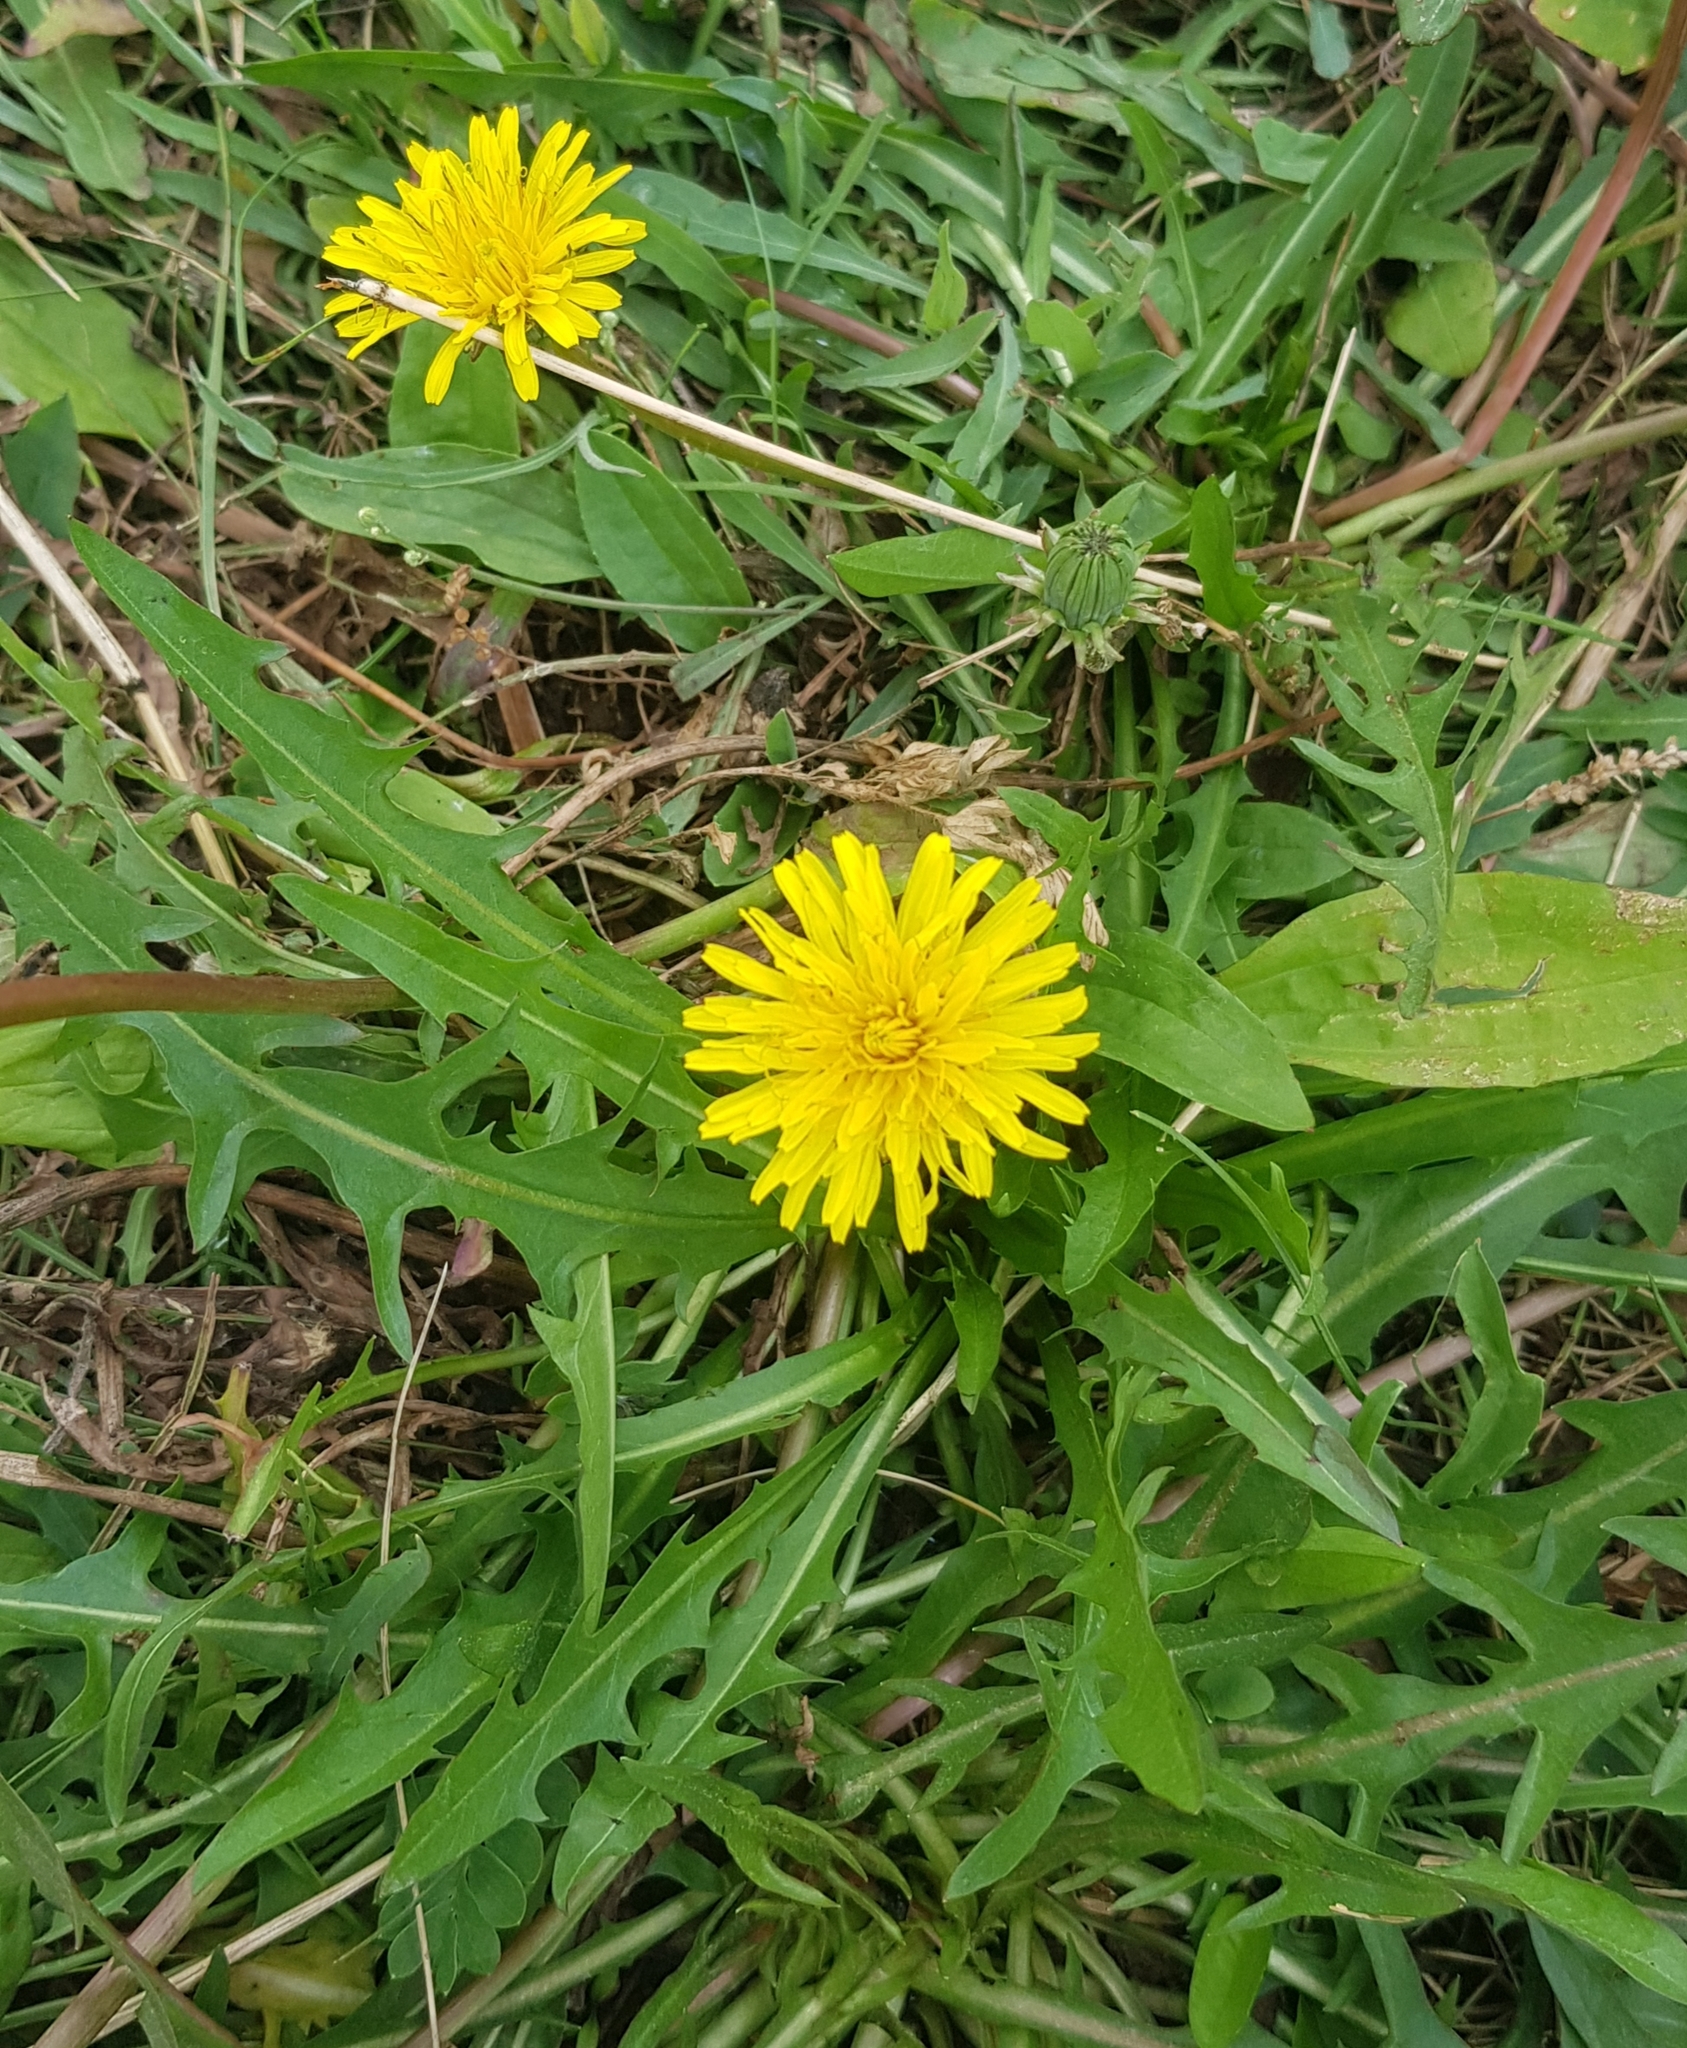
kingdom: Plantae
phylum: Tracheophyta
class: Magnoliopsida
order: Asterales
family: Asteraceae
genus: Ixeris
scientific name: Ixeris chinensis
